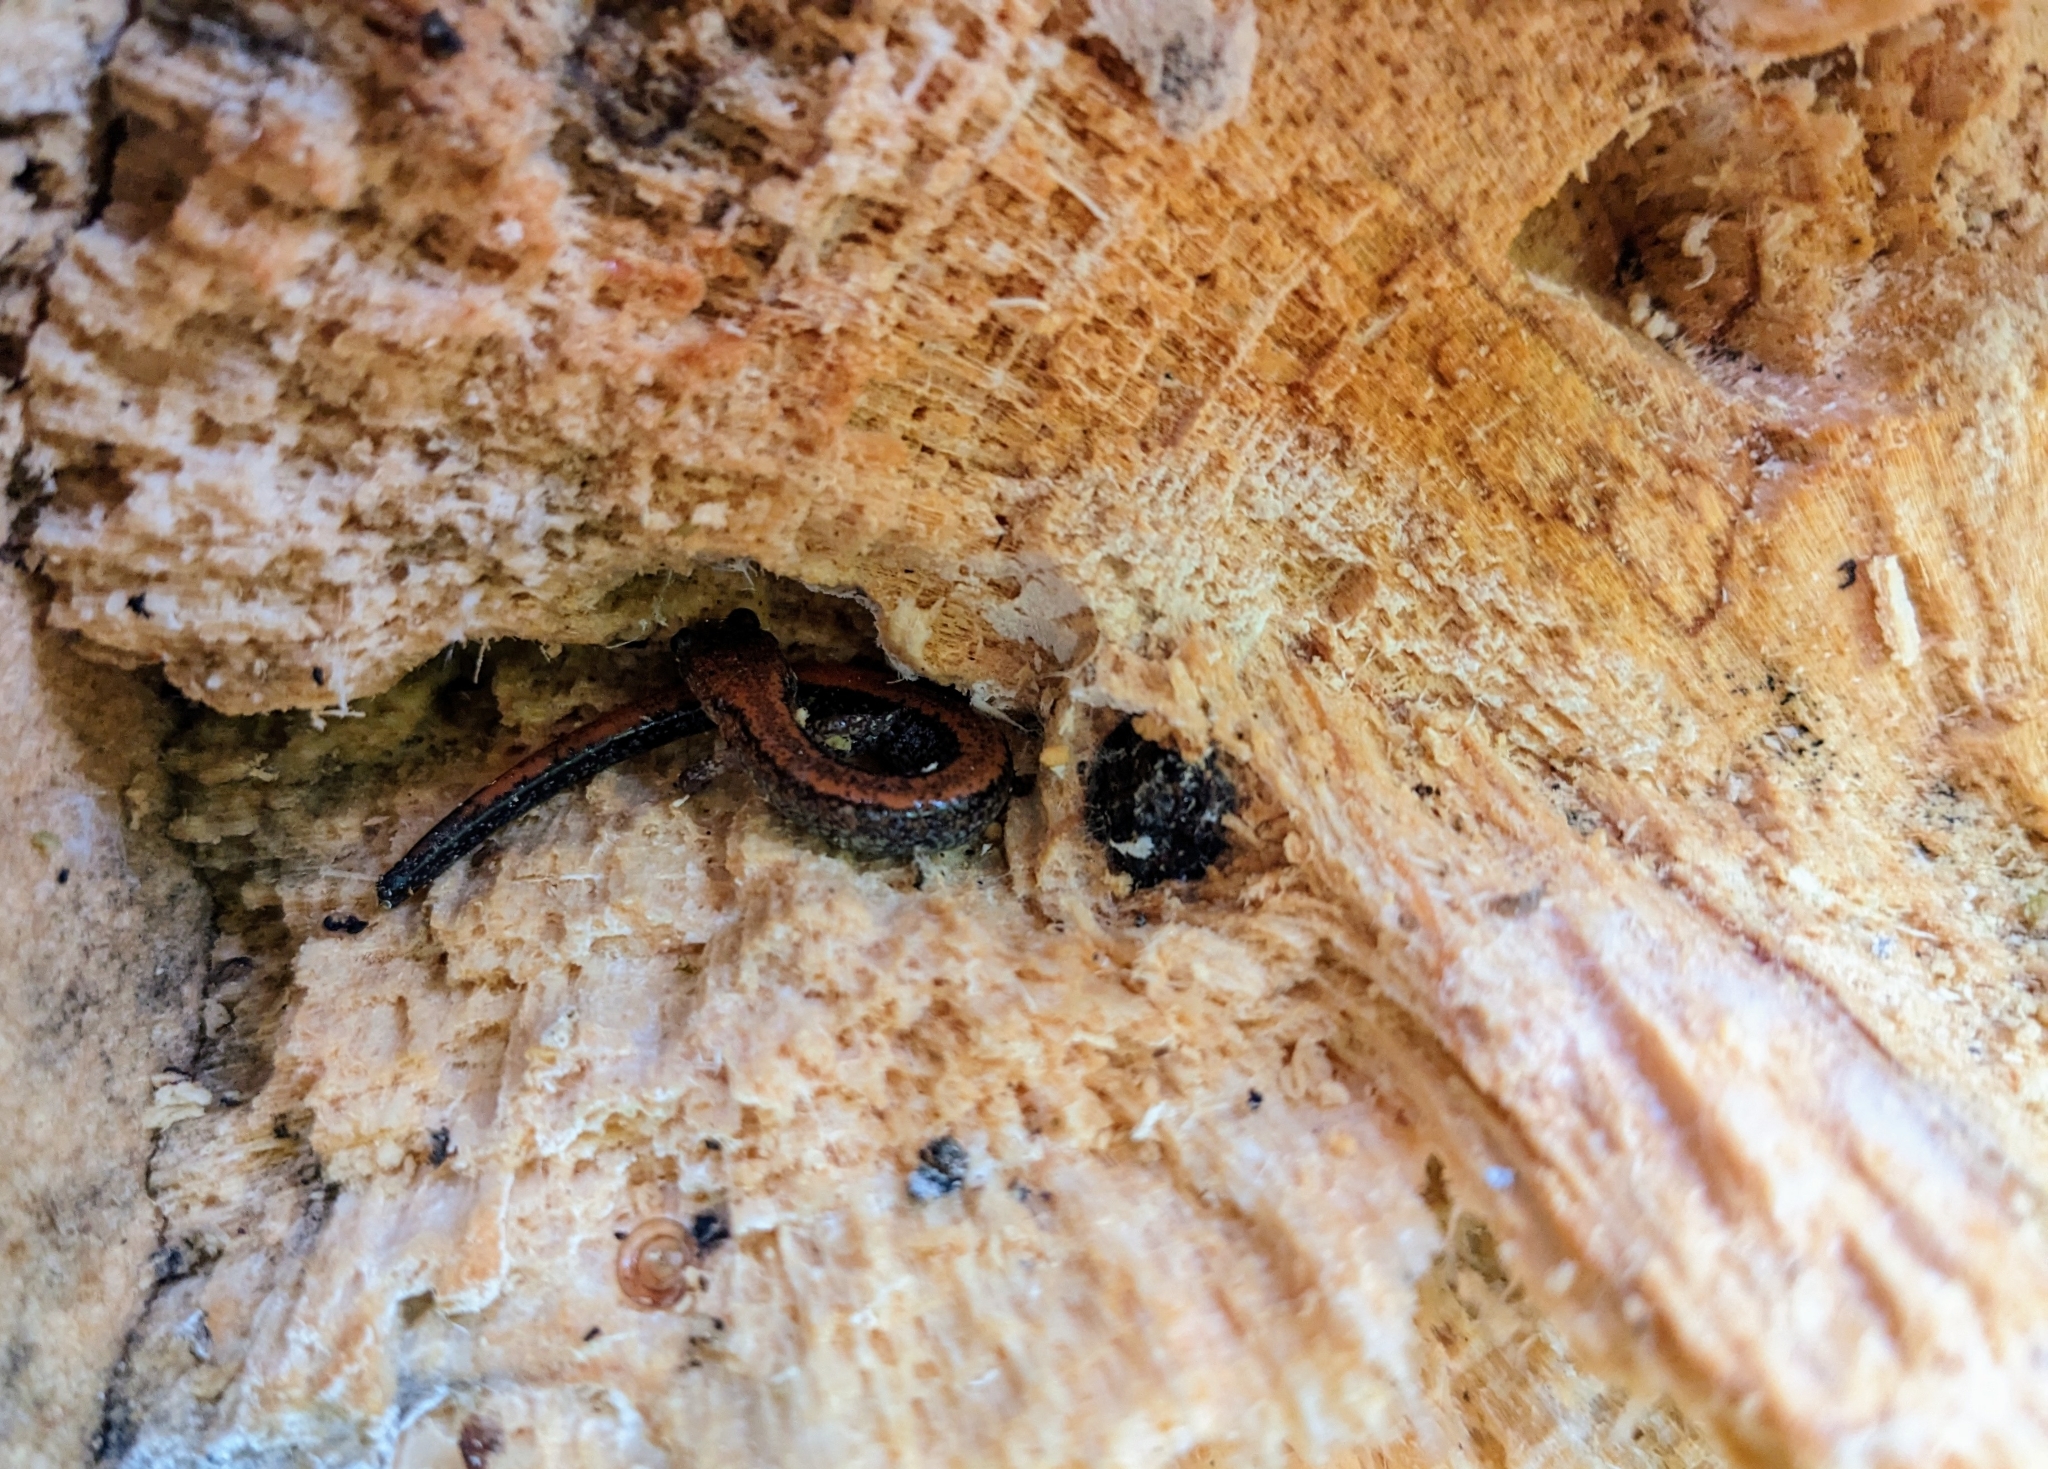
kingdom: Animalia
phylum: Chordata
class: Amphibia
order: Caudata
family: Plethodontidae
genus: Plethodon
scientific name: Plethodon cinereus
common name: Redback salamander
